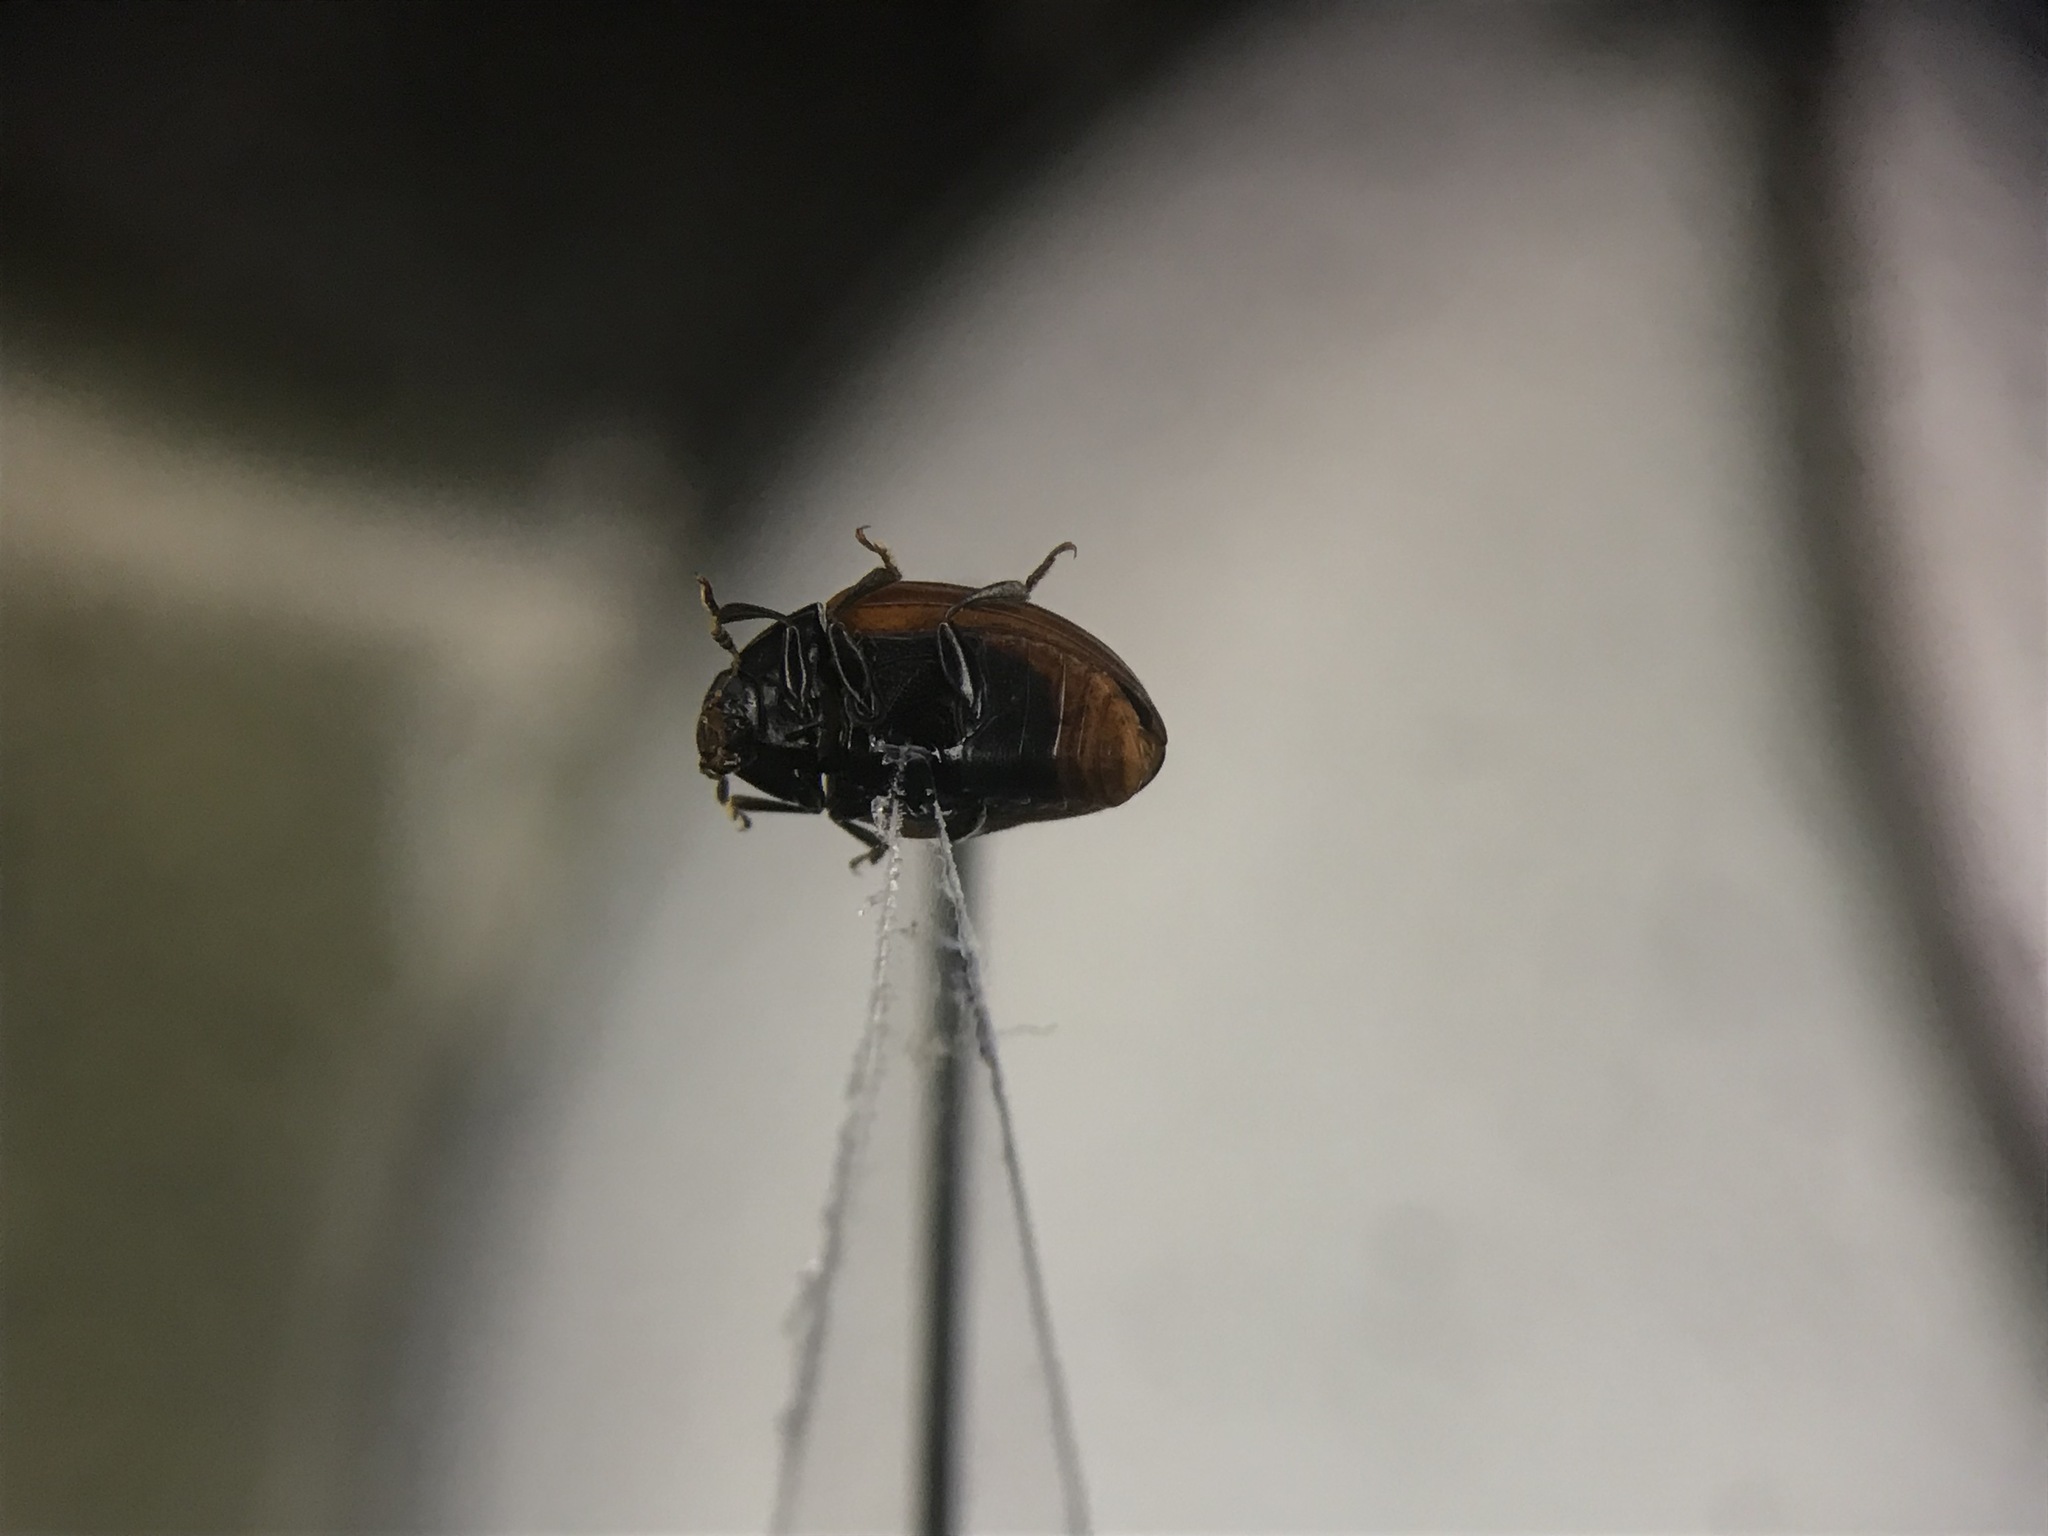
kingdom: Animalia
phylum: Arthropoda
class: Insecta
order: Coleoptera
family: Erotylidae
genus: Tritoma
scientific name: Tritoma sanguinipennis
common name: Red-winged tritoma
